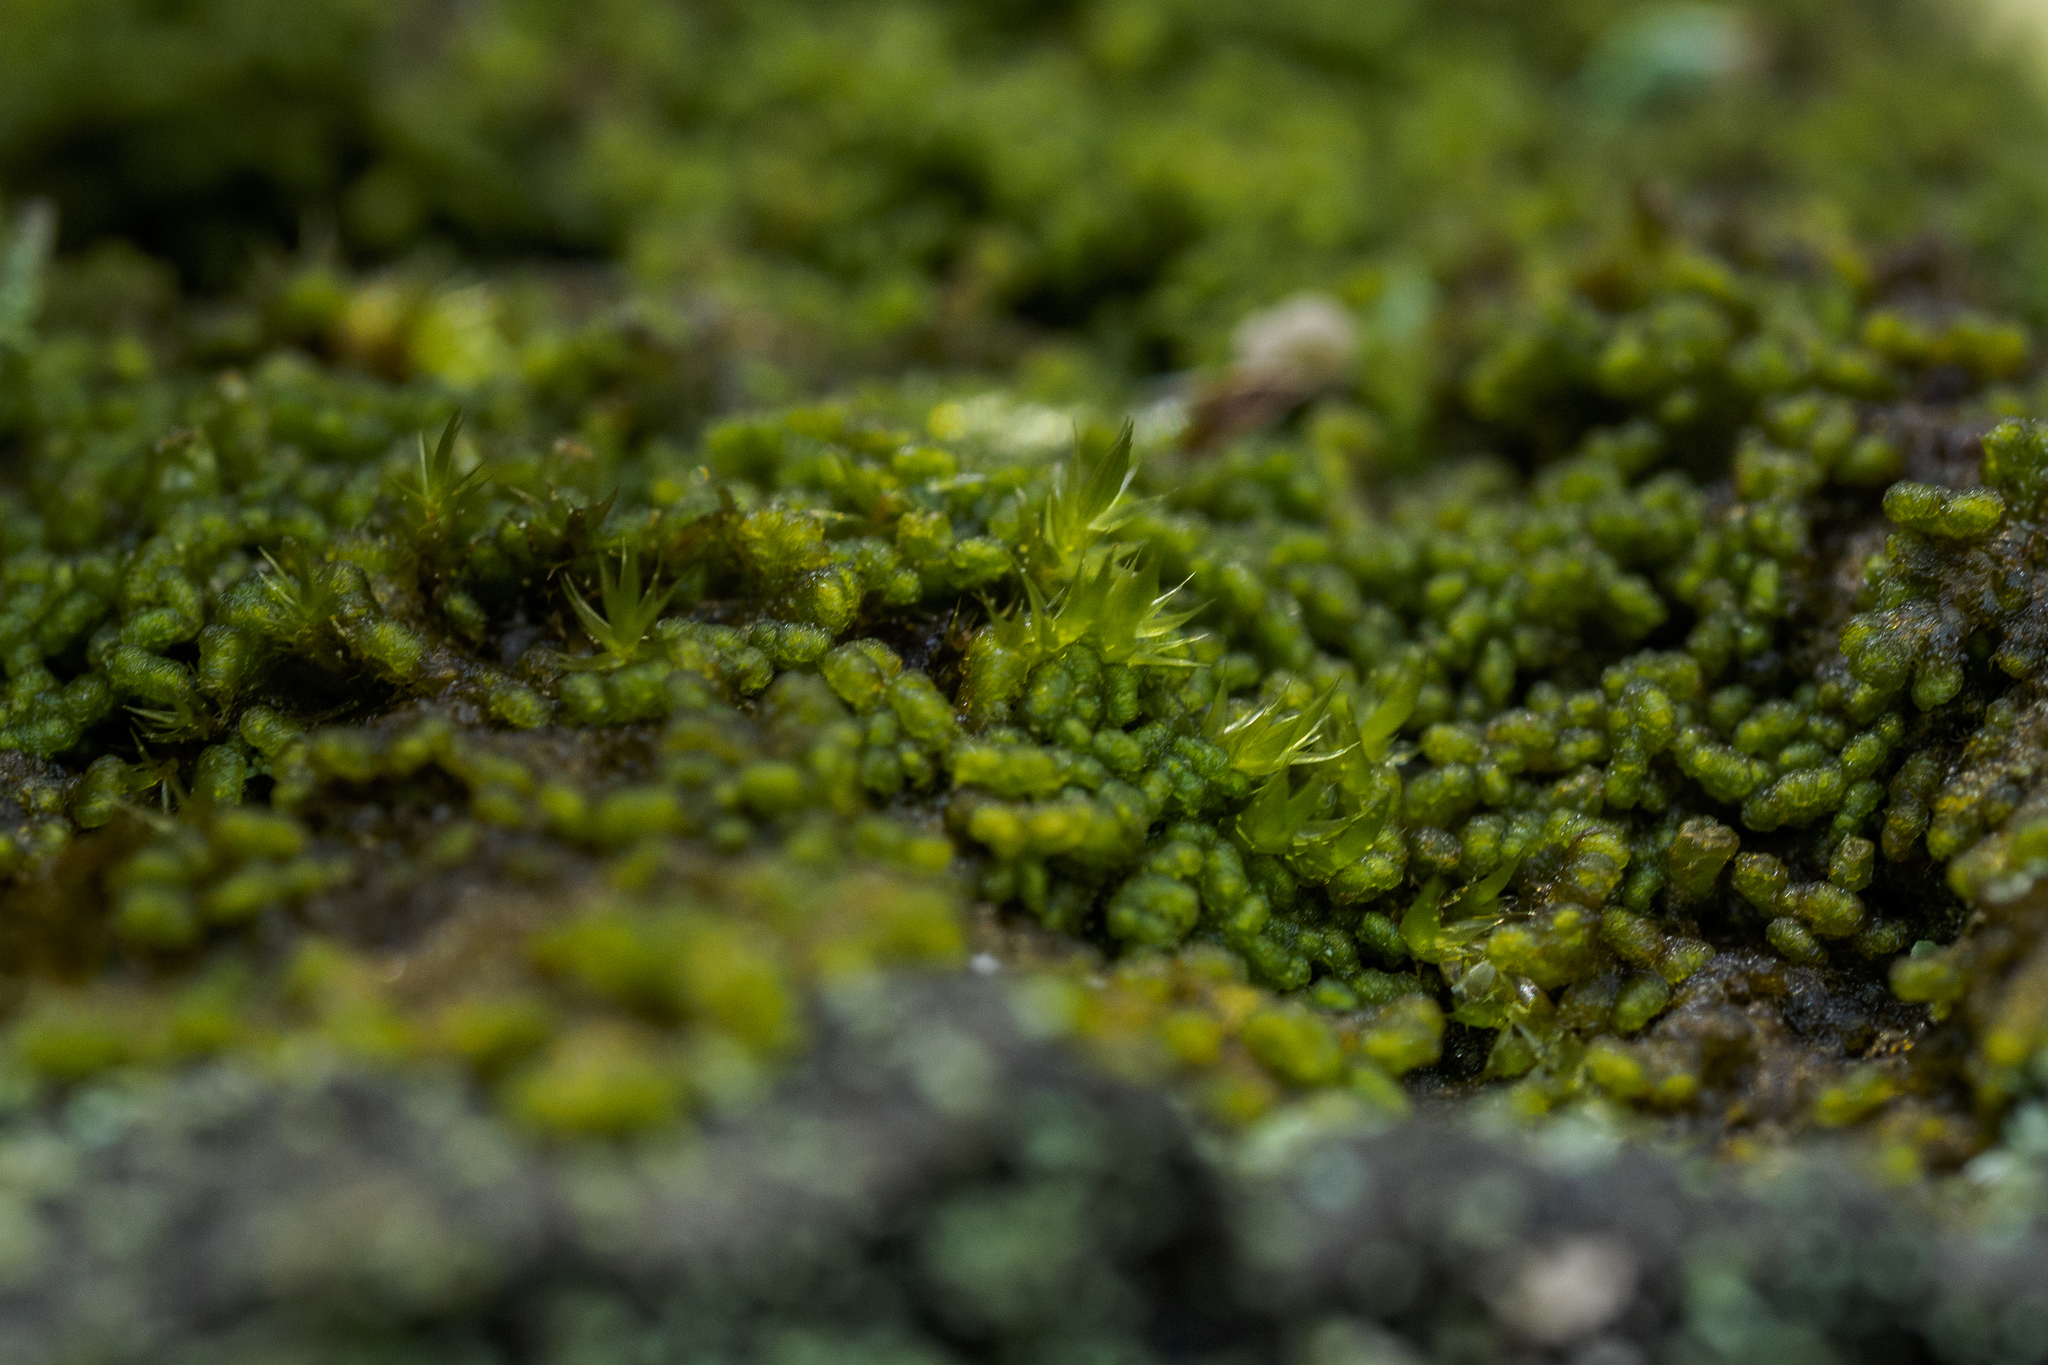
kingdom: Plantae
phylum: Marchantiophyta
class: Jungermanniopsida
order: Ptilidiales
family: Ptilidiaceae
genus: Ptilidium
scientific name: Ptilidium pulcherrimum
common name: Tree fringewort
